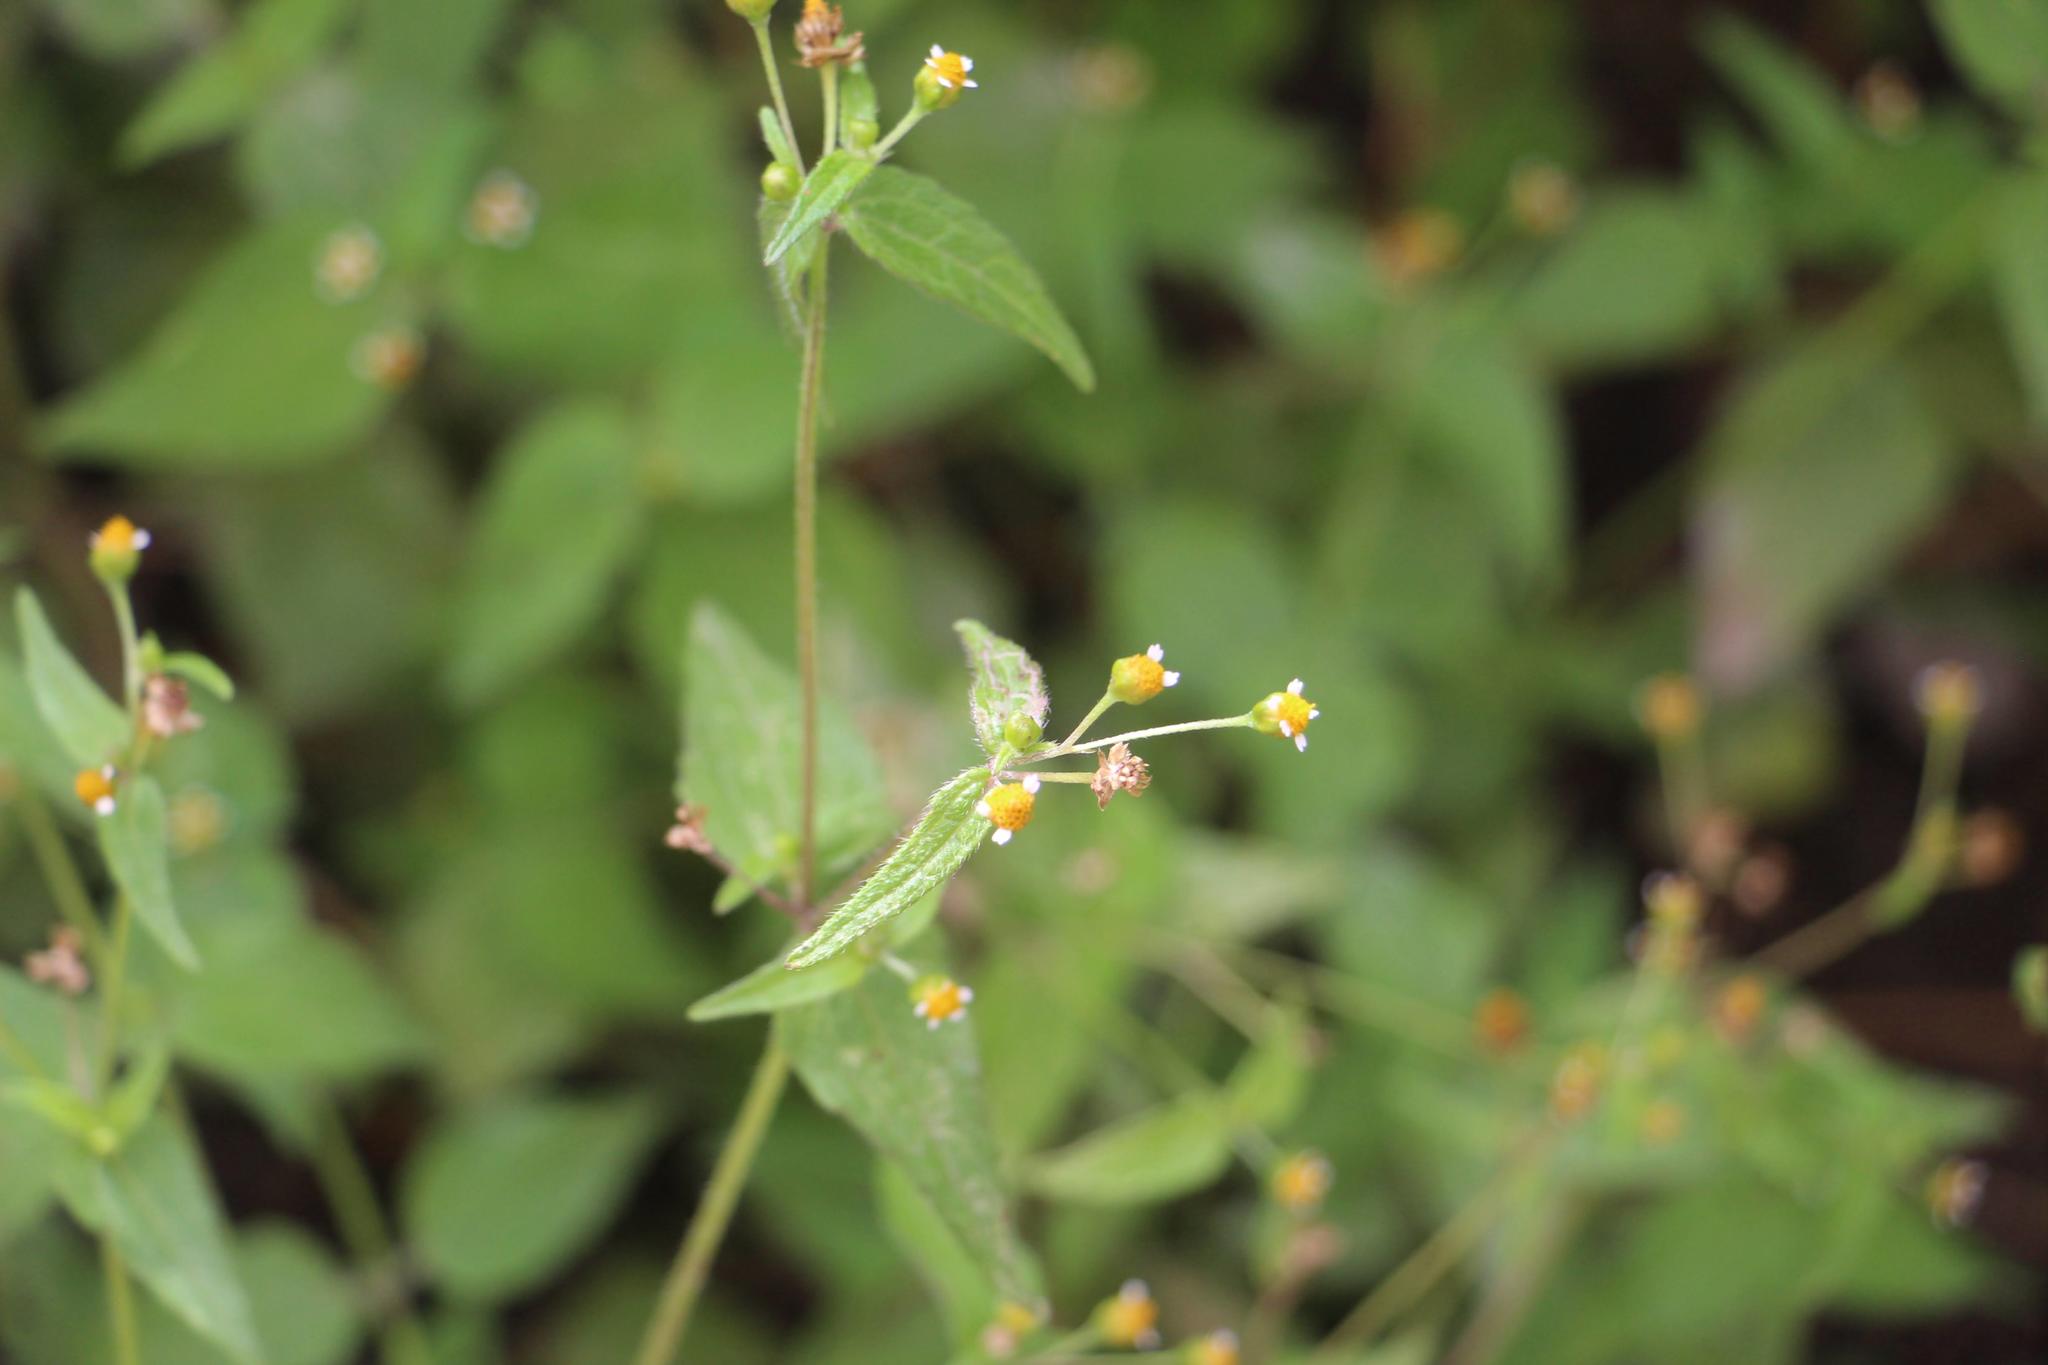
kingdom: Plantae
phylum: Tracheophyta
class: Magnoliopsida
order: Asterales
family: Asteraceae
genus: Galinsoga
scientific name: Galinsoga quadriradiata
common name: Shaggy soldier
